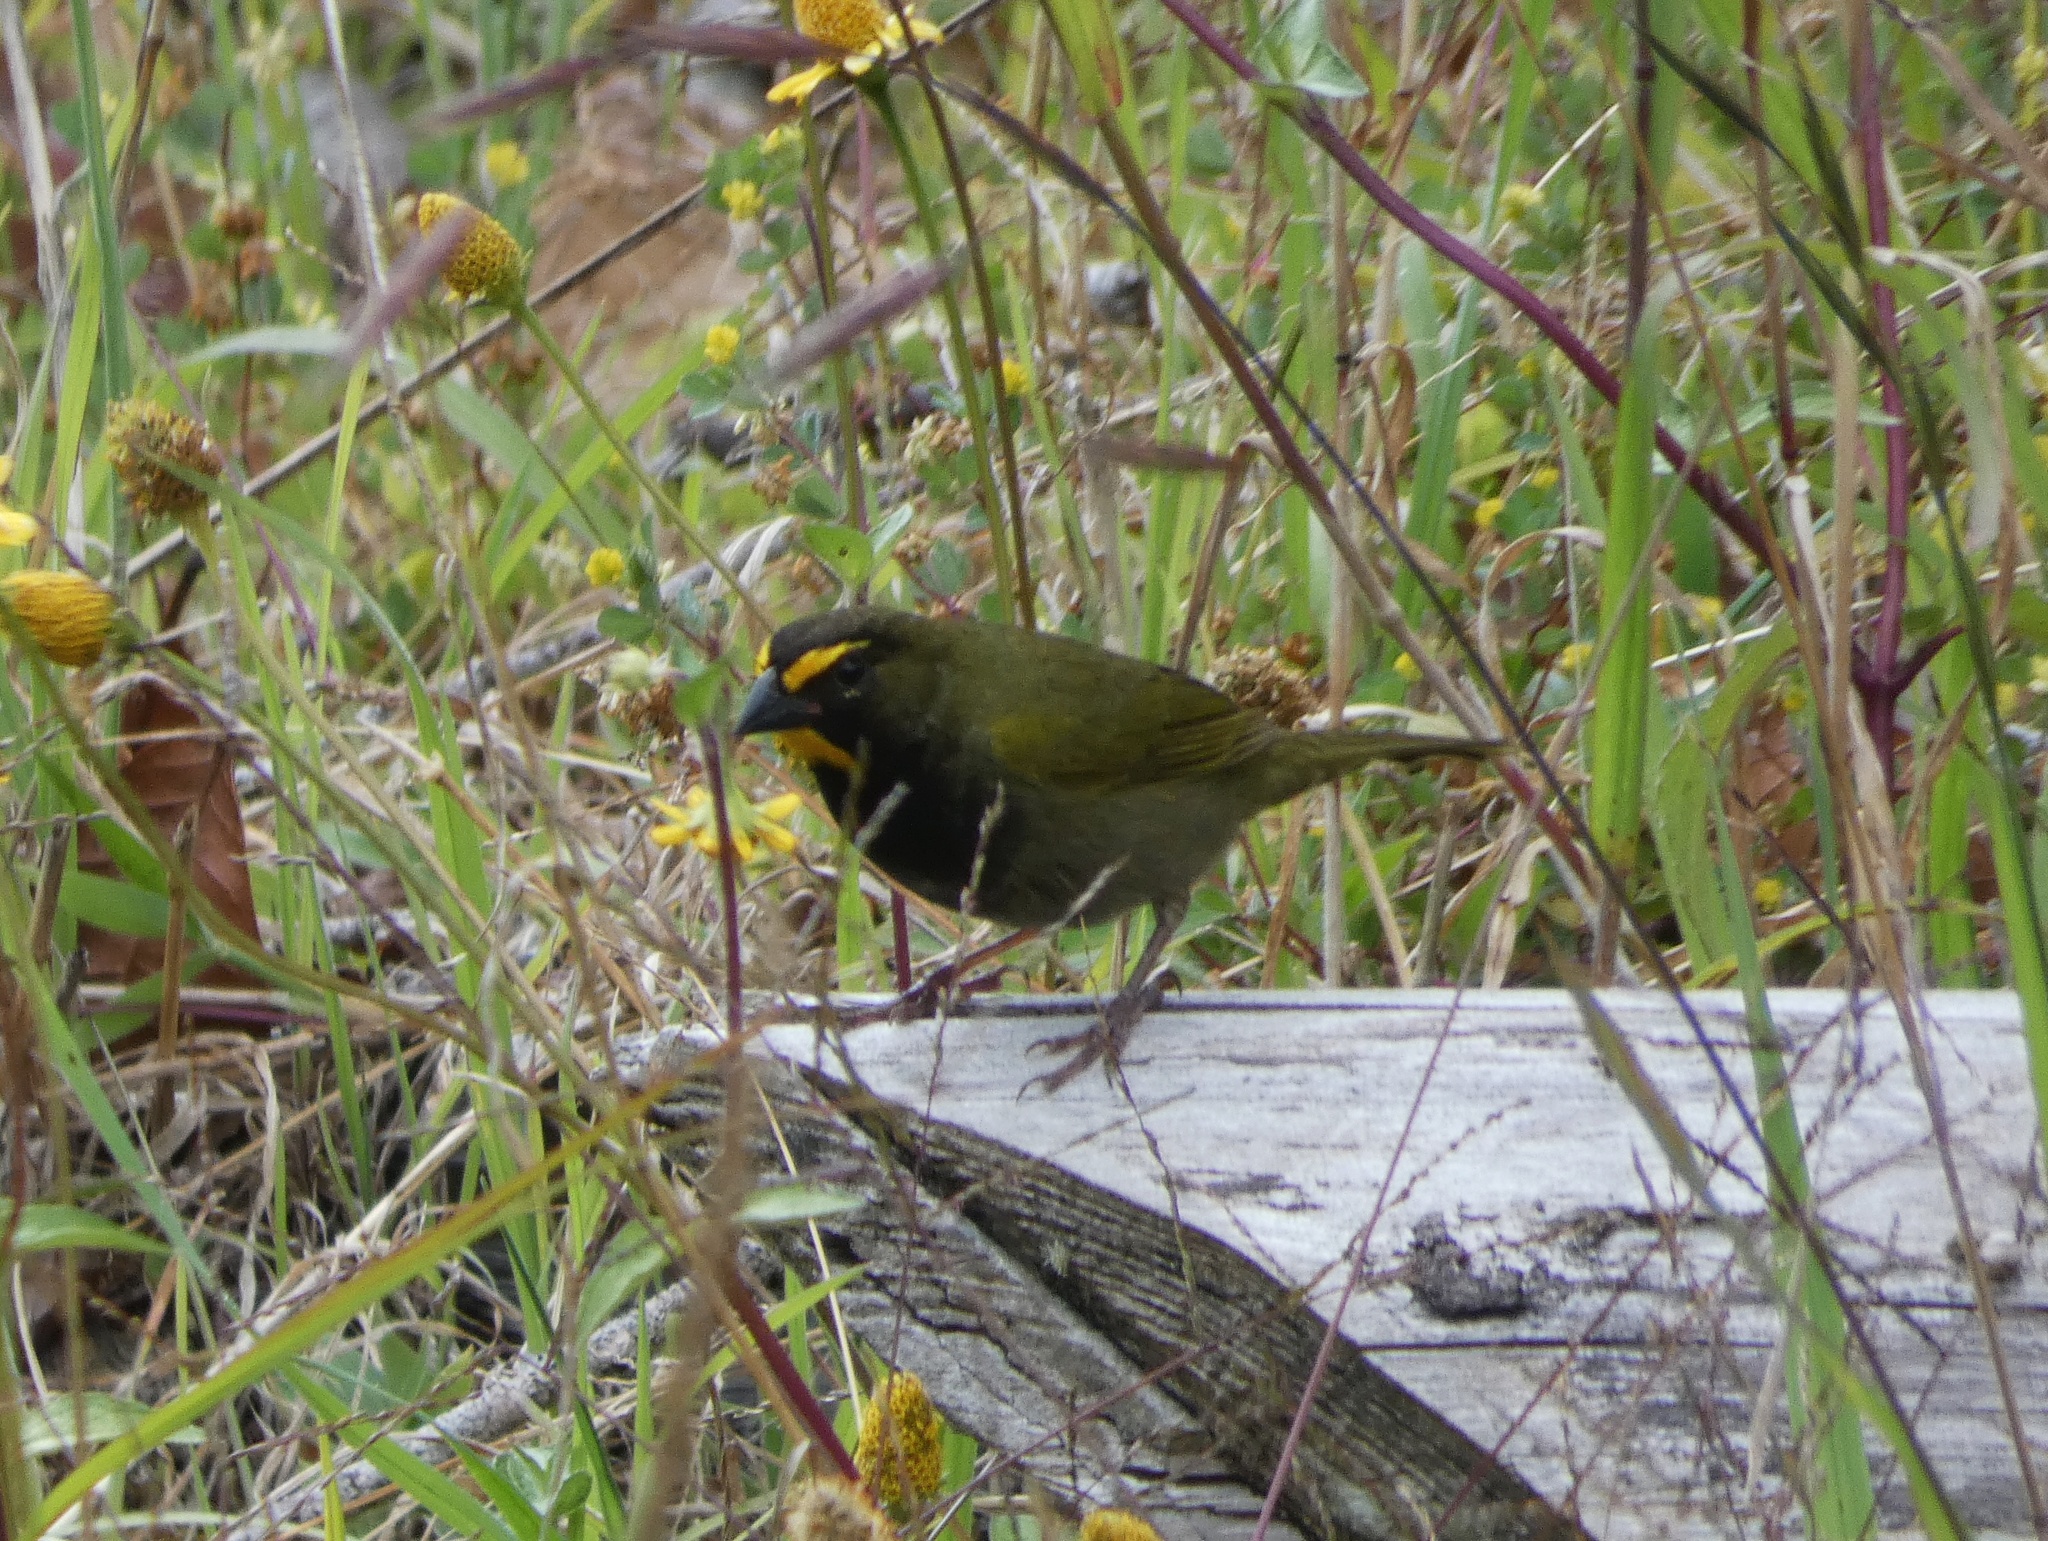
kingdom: Animalia
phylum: Chordata
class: Aves
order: Passeriformes
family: Thraupidae
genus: Tiaris
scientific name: Tiaris olivaceus
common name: Yellow-faced grassquit
